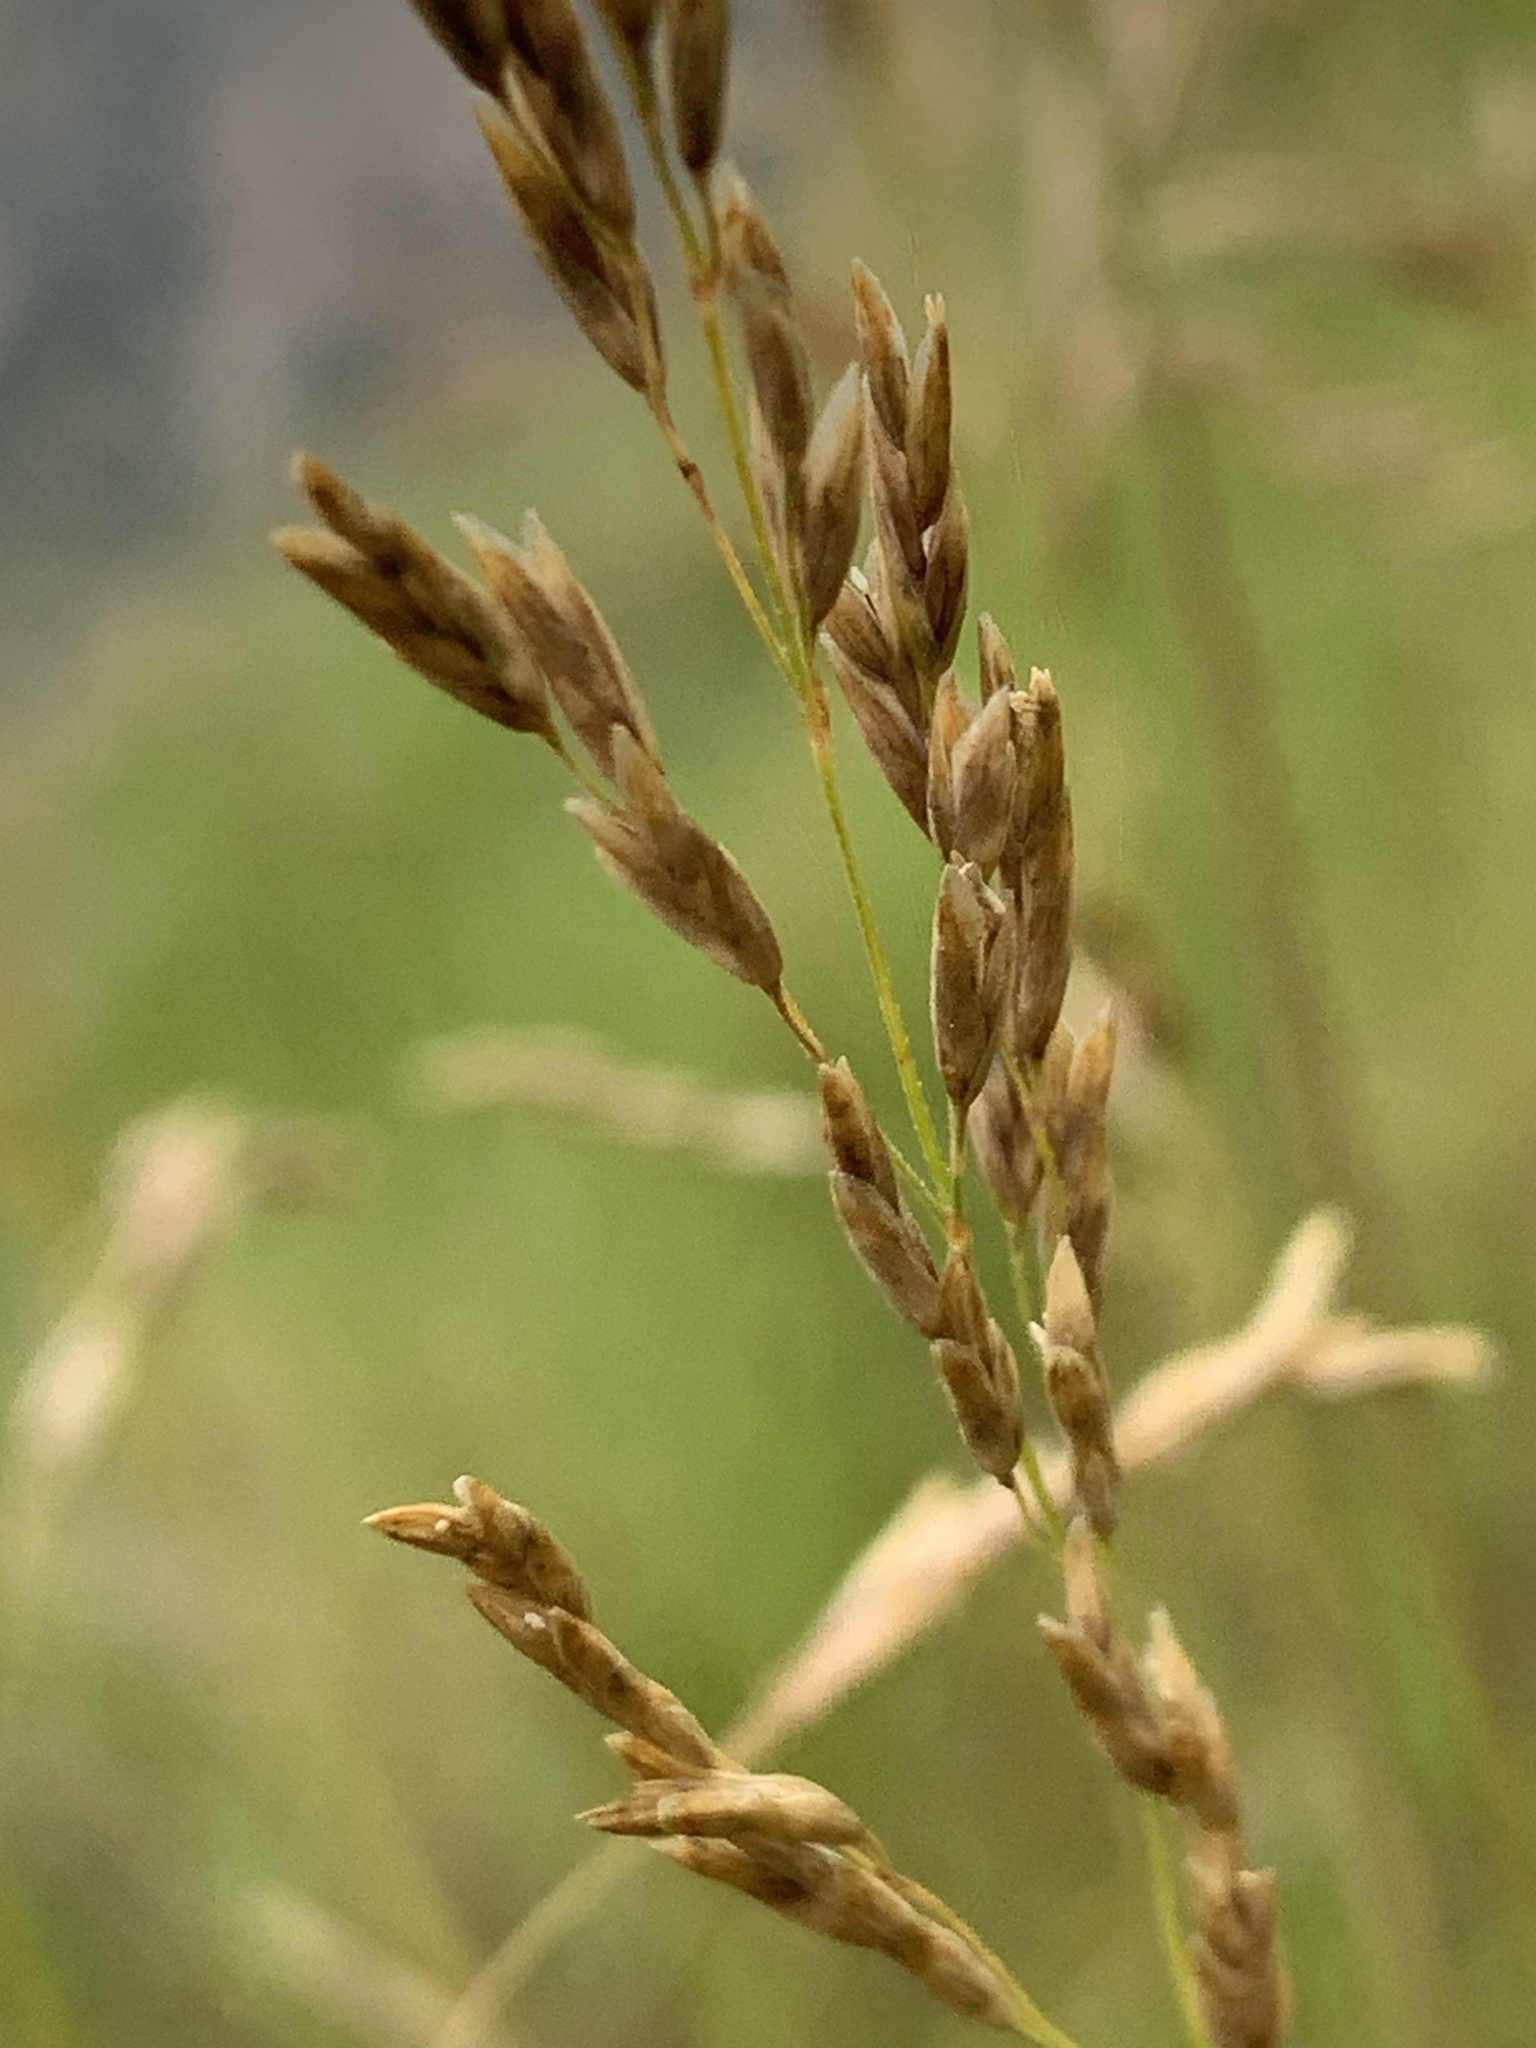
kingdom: Plantae
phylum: Tracheophyta
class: Liliopsida
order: Poales
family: Poaceae
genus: Melica
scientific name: Melica imperfecta
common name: California melic
